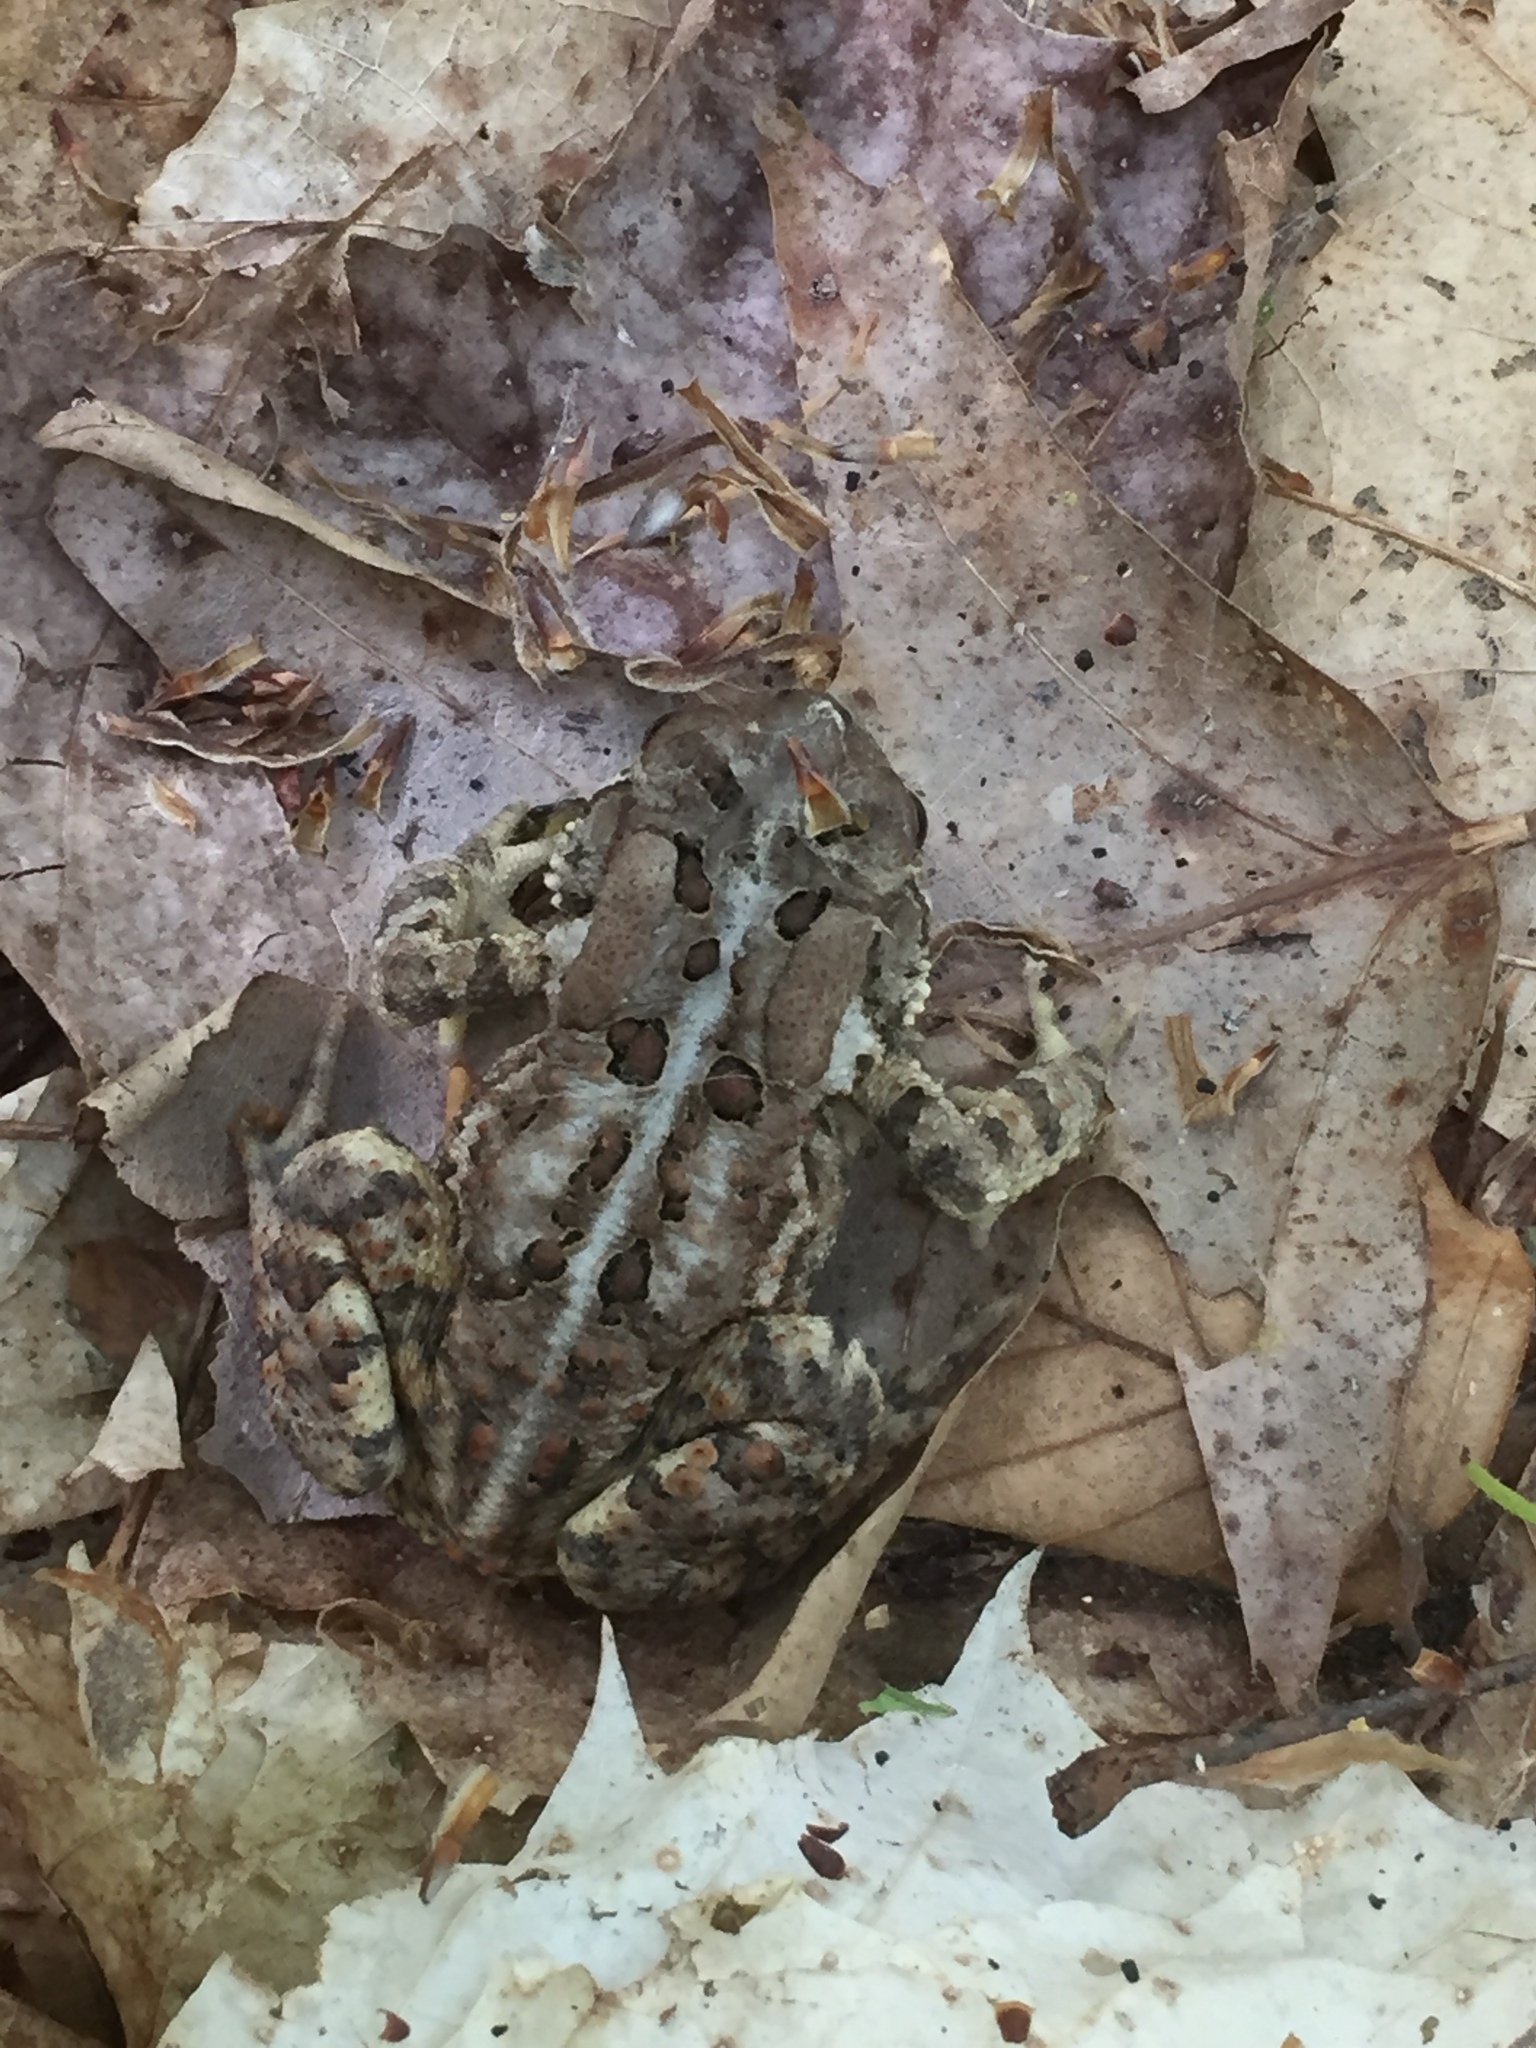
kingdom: Animalia
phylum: Chordata
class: Amphibia
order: Anura
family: Bufonidae
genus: Anaxyrus
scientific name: Anaxyrus americanus
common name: American toad
